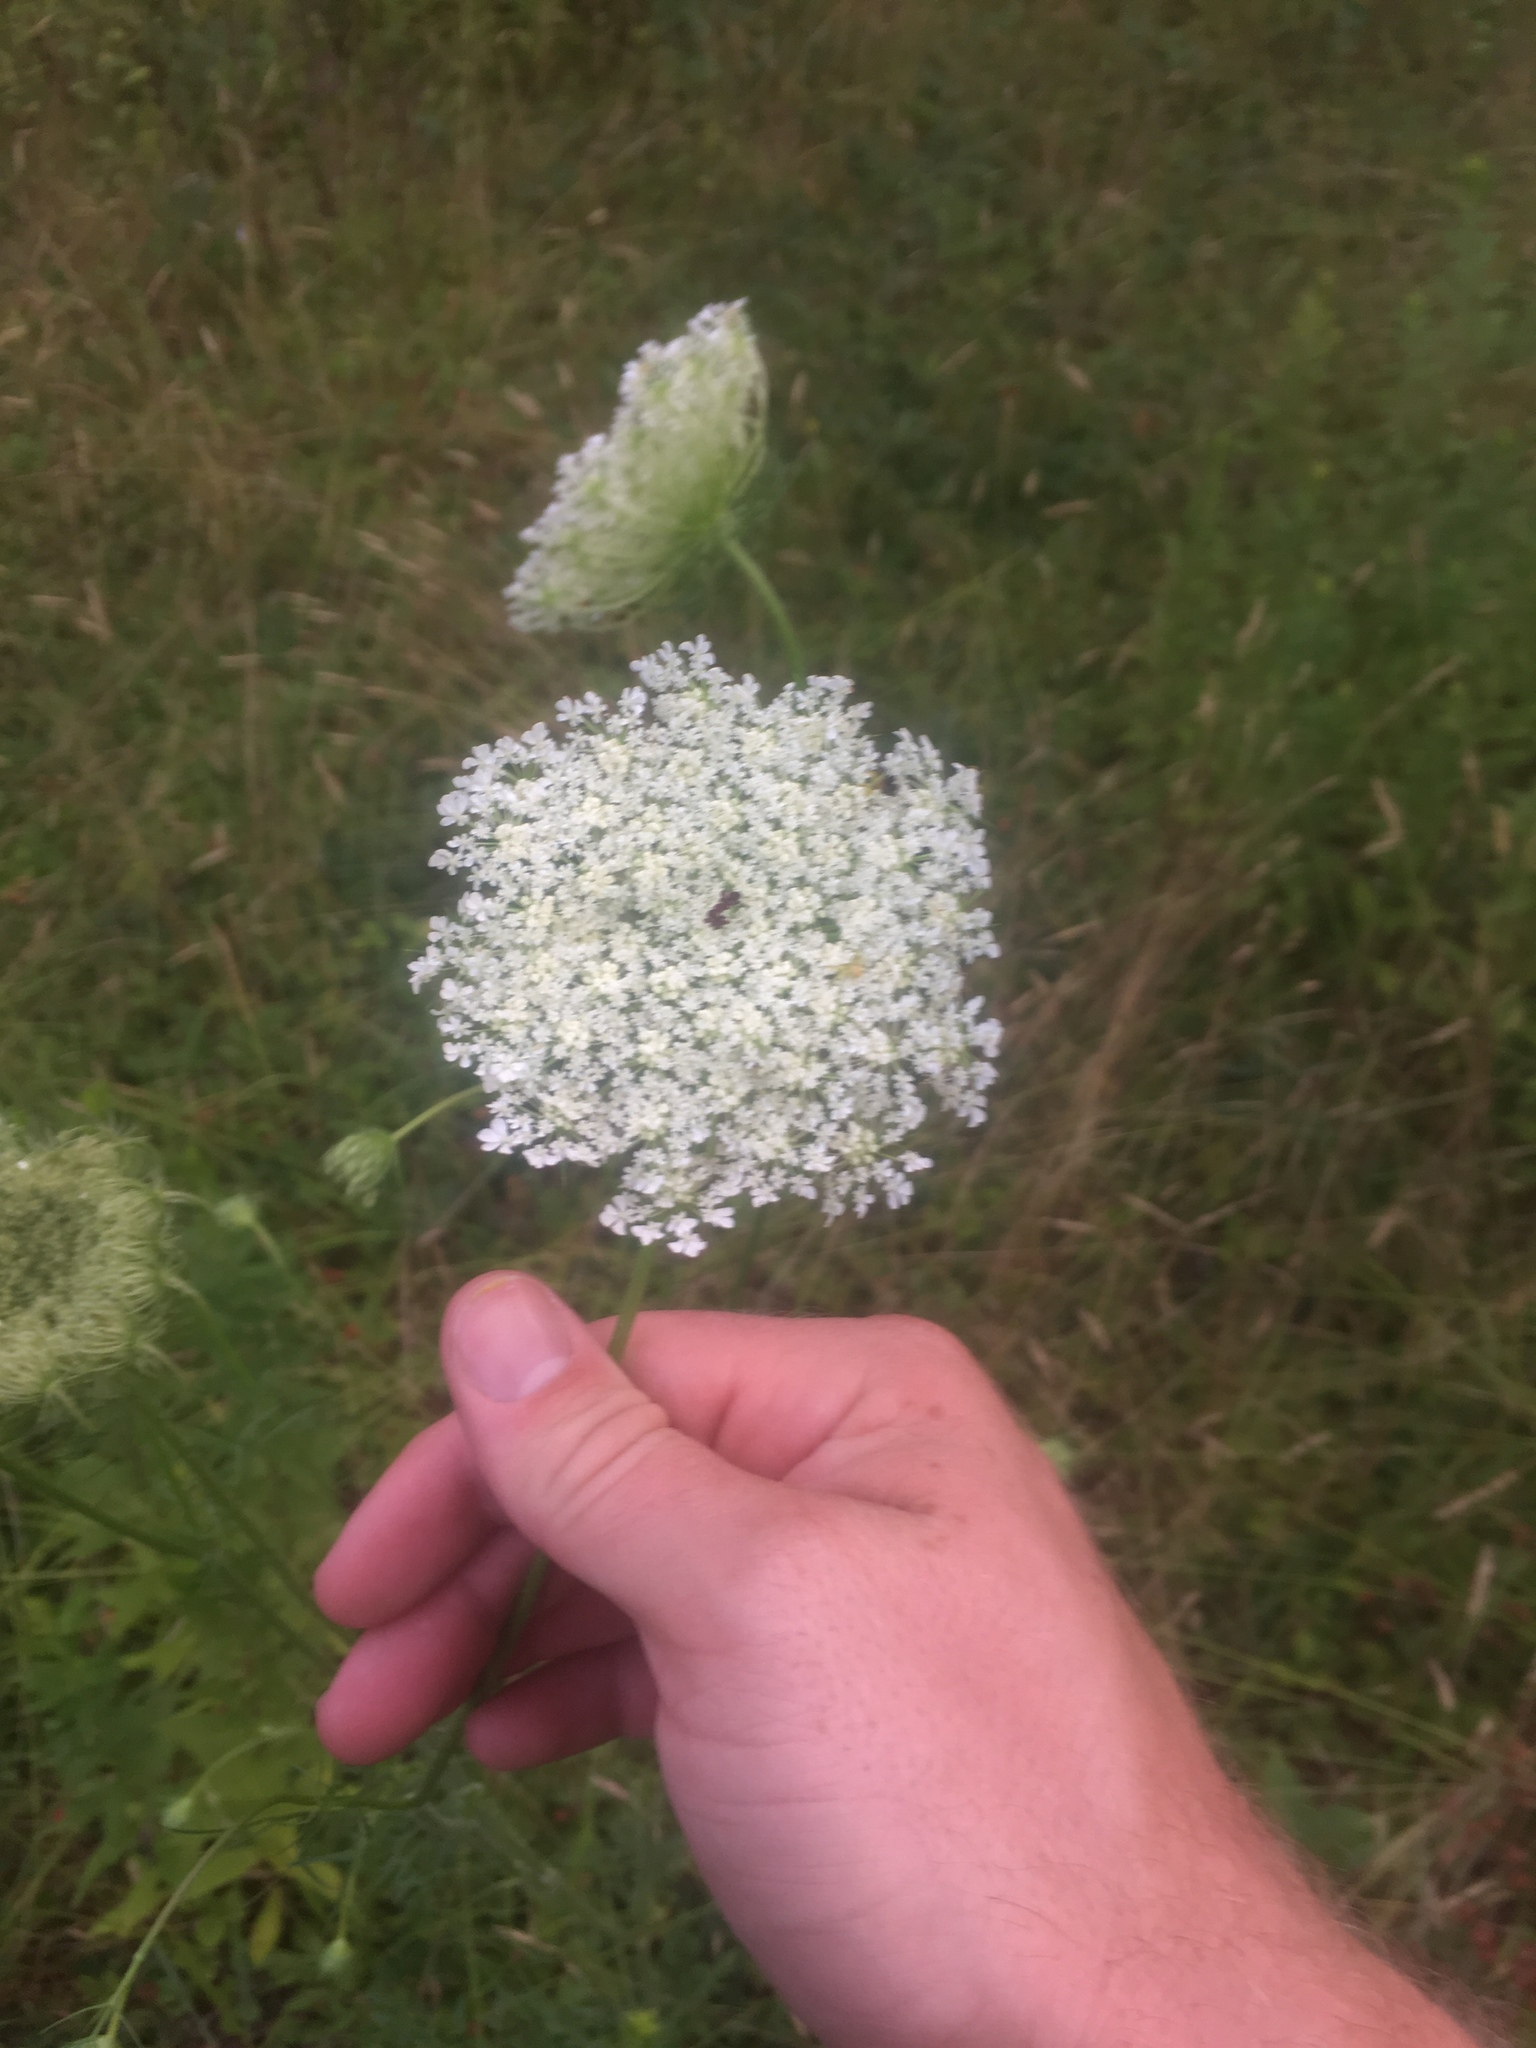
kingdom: Plantae
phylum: Tracheophyta
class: Magnoliopsida
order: Apiales
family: Apiaceae
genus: Daucus
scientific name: Daucus carota
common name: Wild carrot
